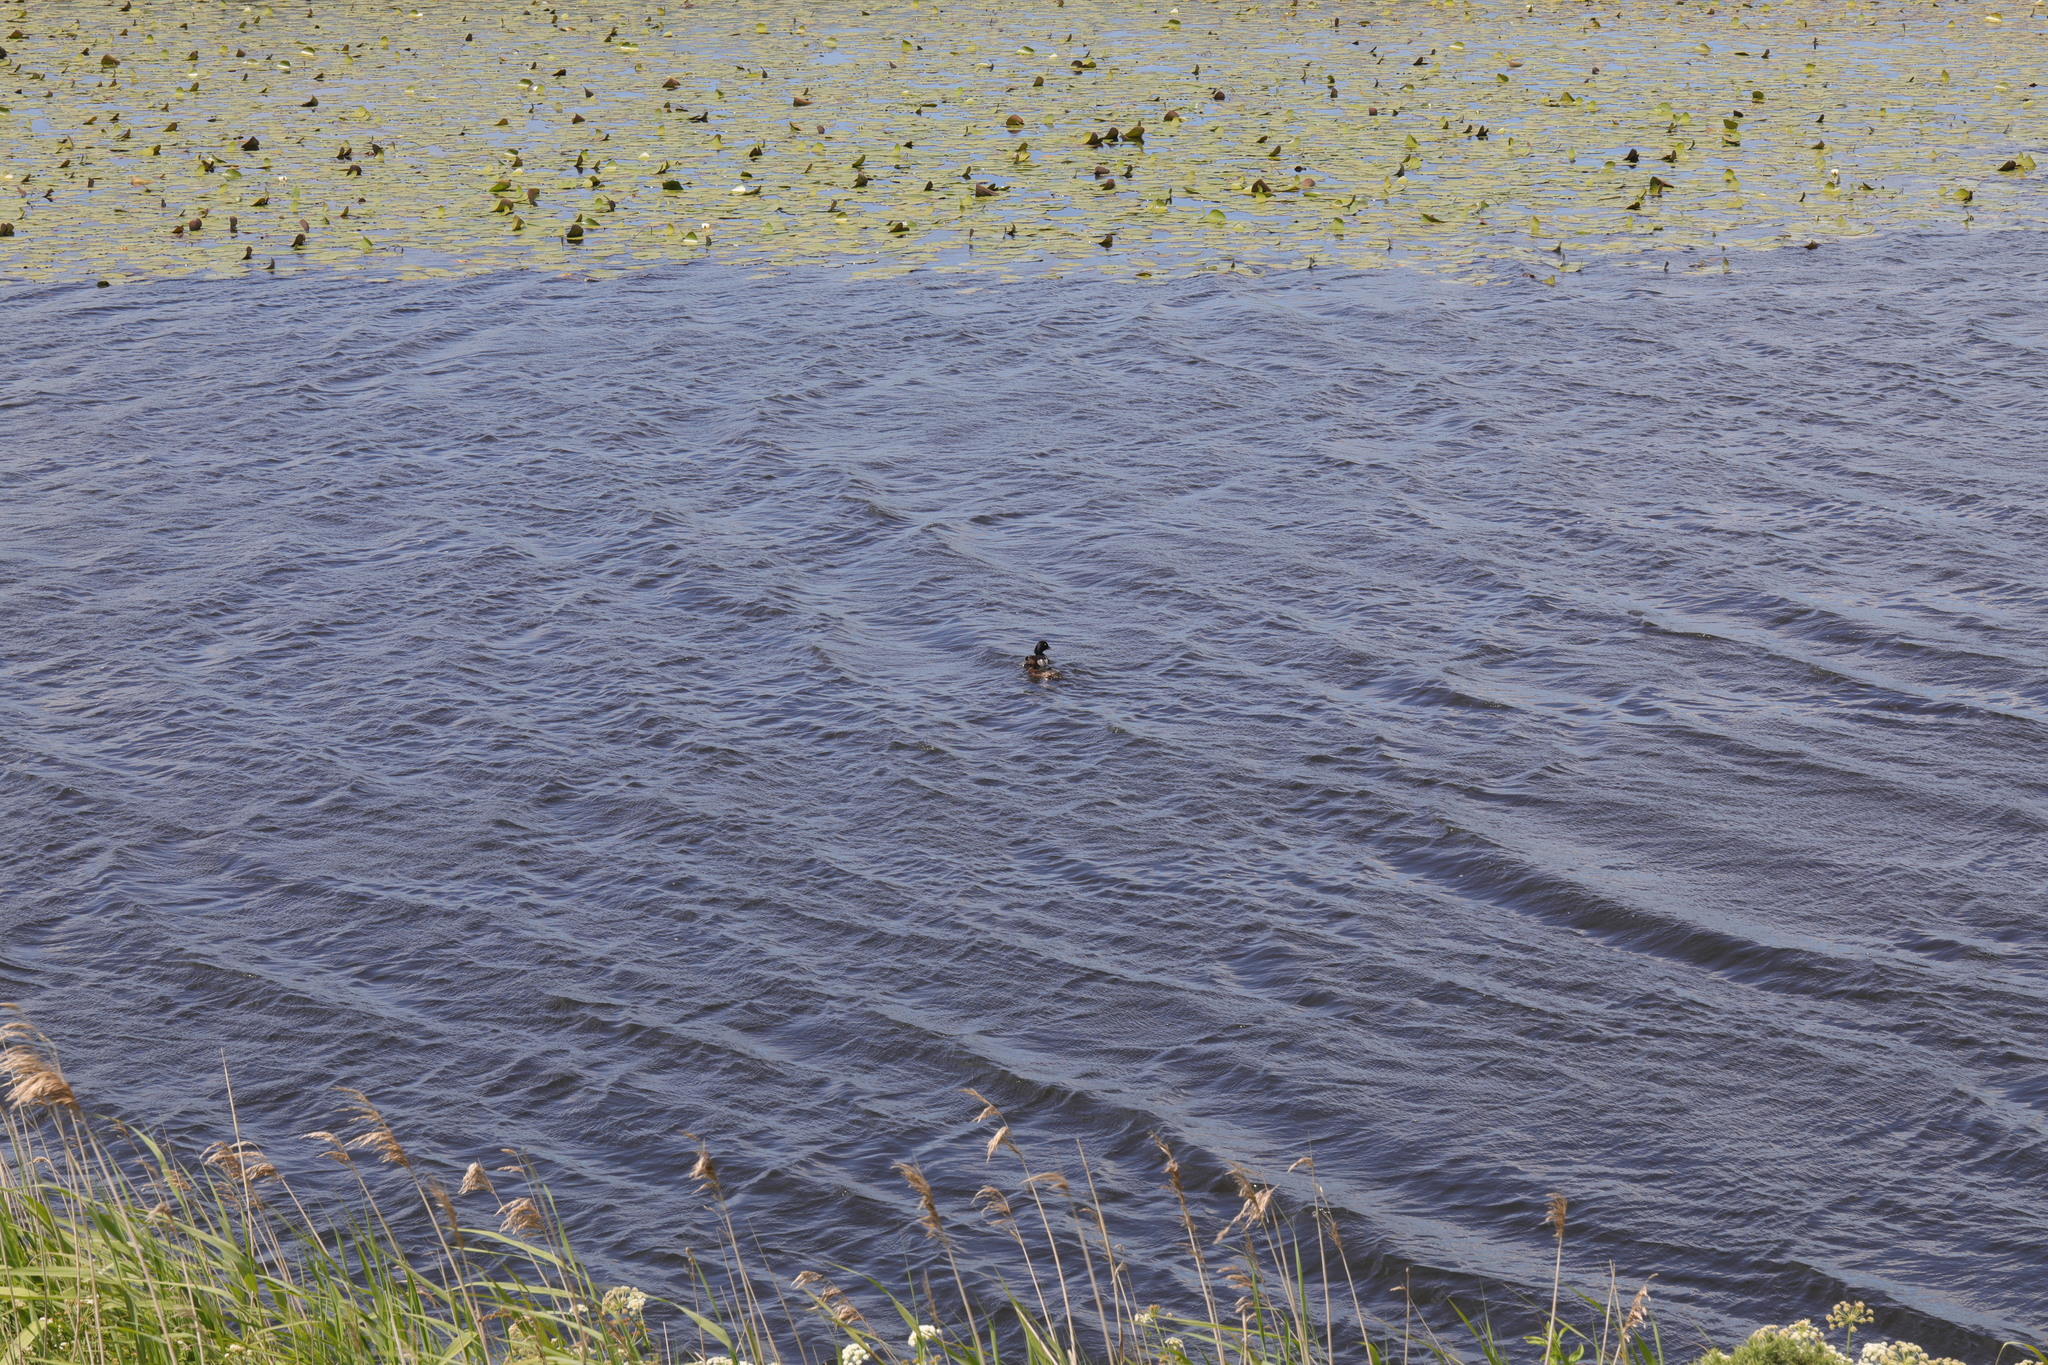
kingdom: Animalia
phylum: Chordata
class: Aves
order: Anseriformes
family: Anatidae
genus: Aythya
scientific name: Aythya fuligula
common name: Tufted duck
